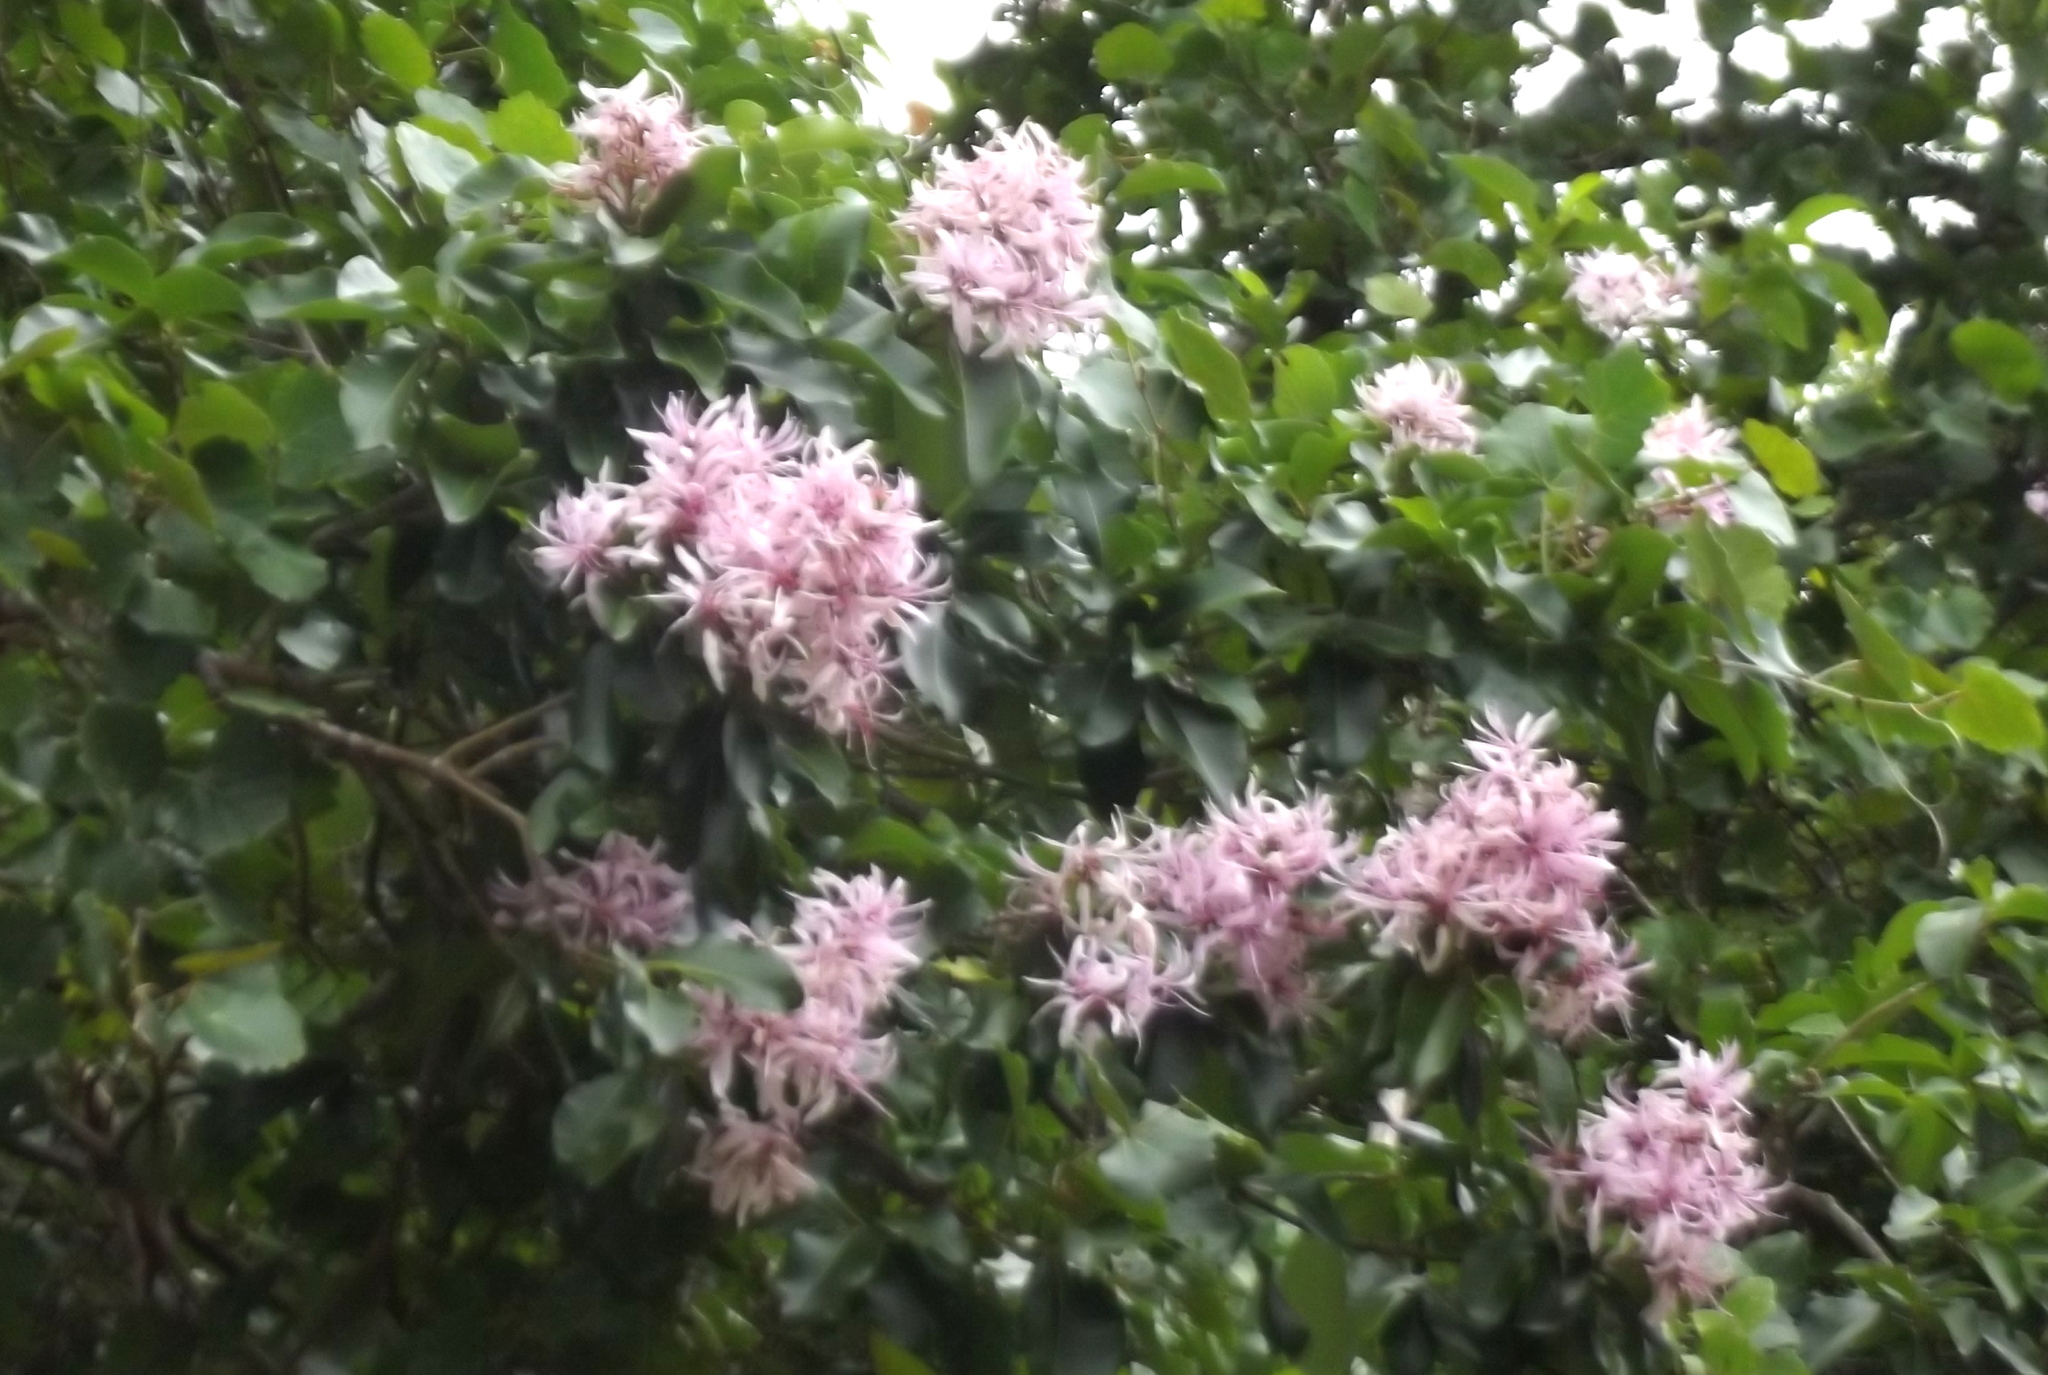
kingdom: Plantae
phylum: Tracheophyta
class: Magnoliopsida
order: Sapindales
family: Rutaceae
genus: Calodendrum
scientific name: Calodendrum capense
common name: Cape chestnut
